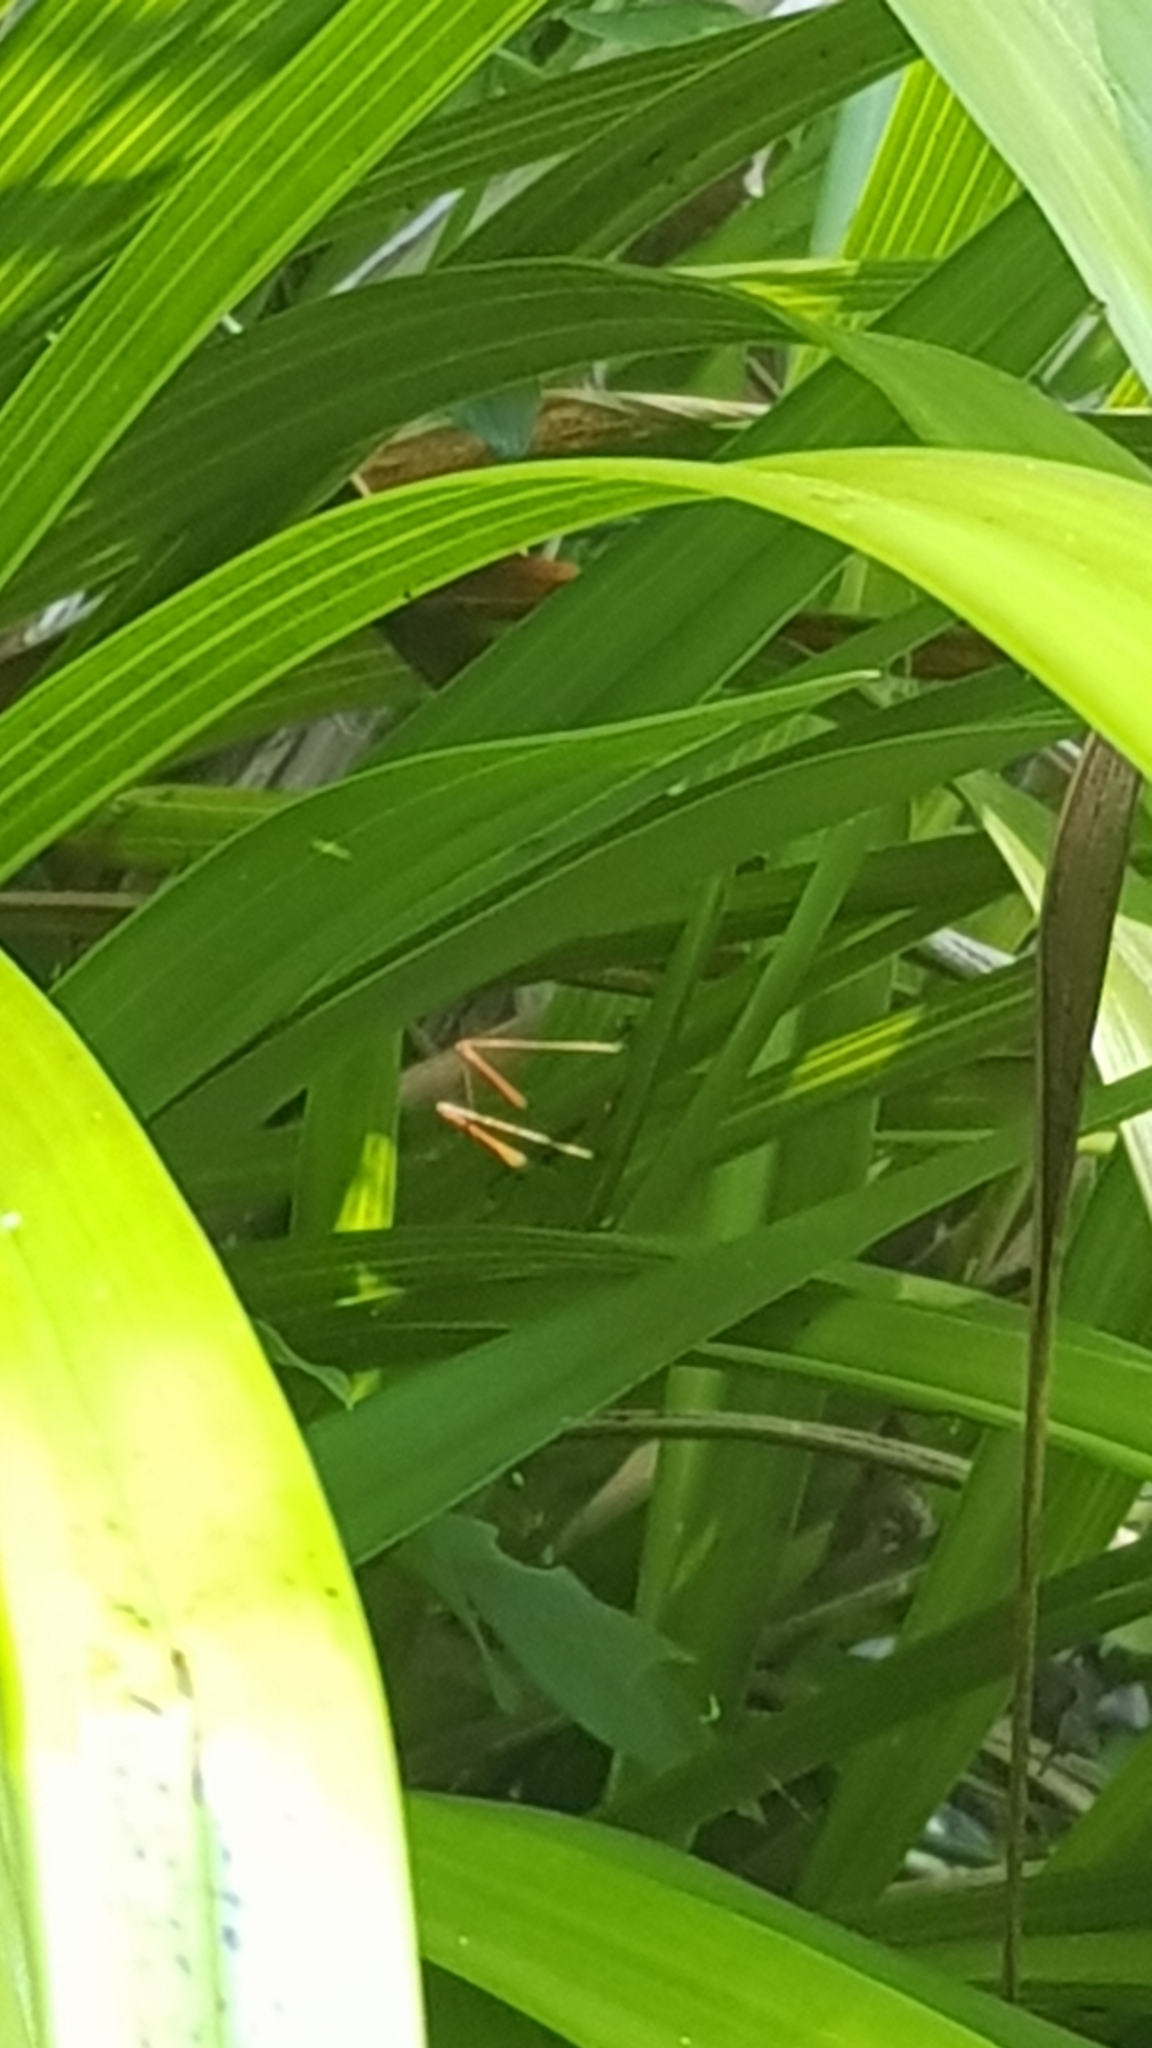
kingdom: Animalia
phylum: Arthropoda
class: Insecta
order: Orthoptera
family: Tettigoniidae
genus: Conocephalus
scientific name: Conocephalus albescens
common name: Whitish meadow katydid
